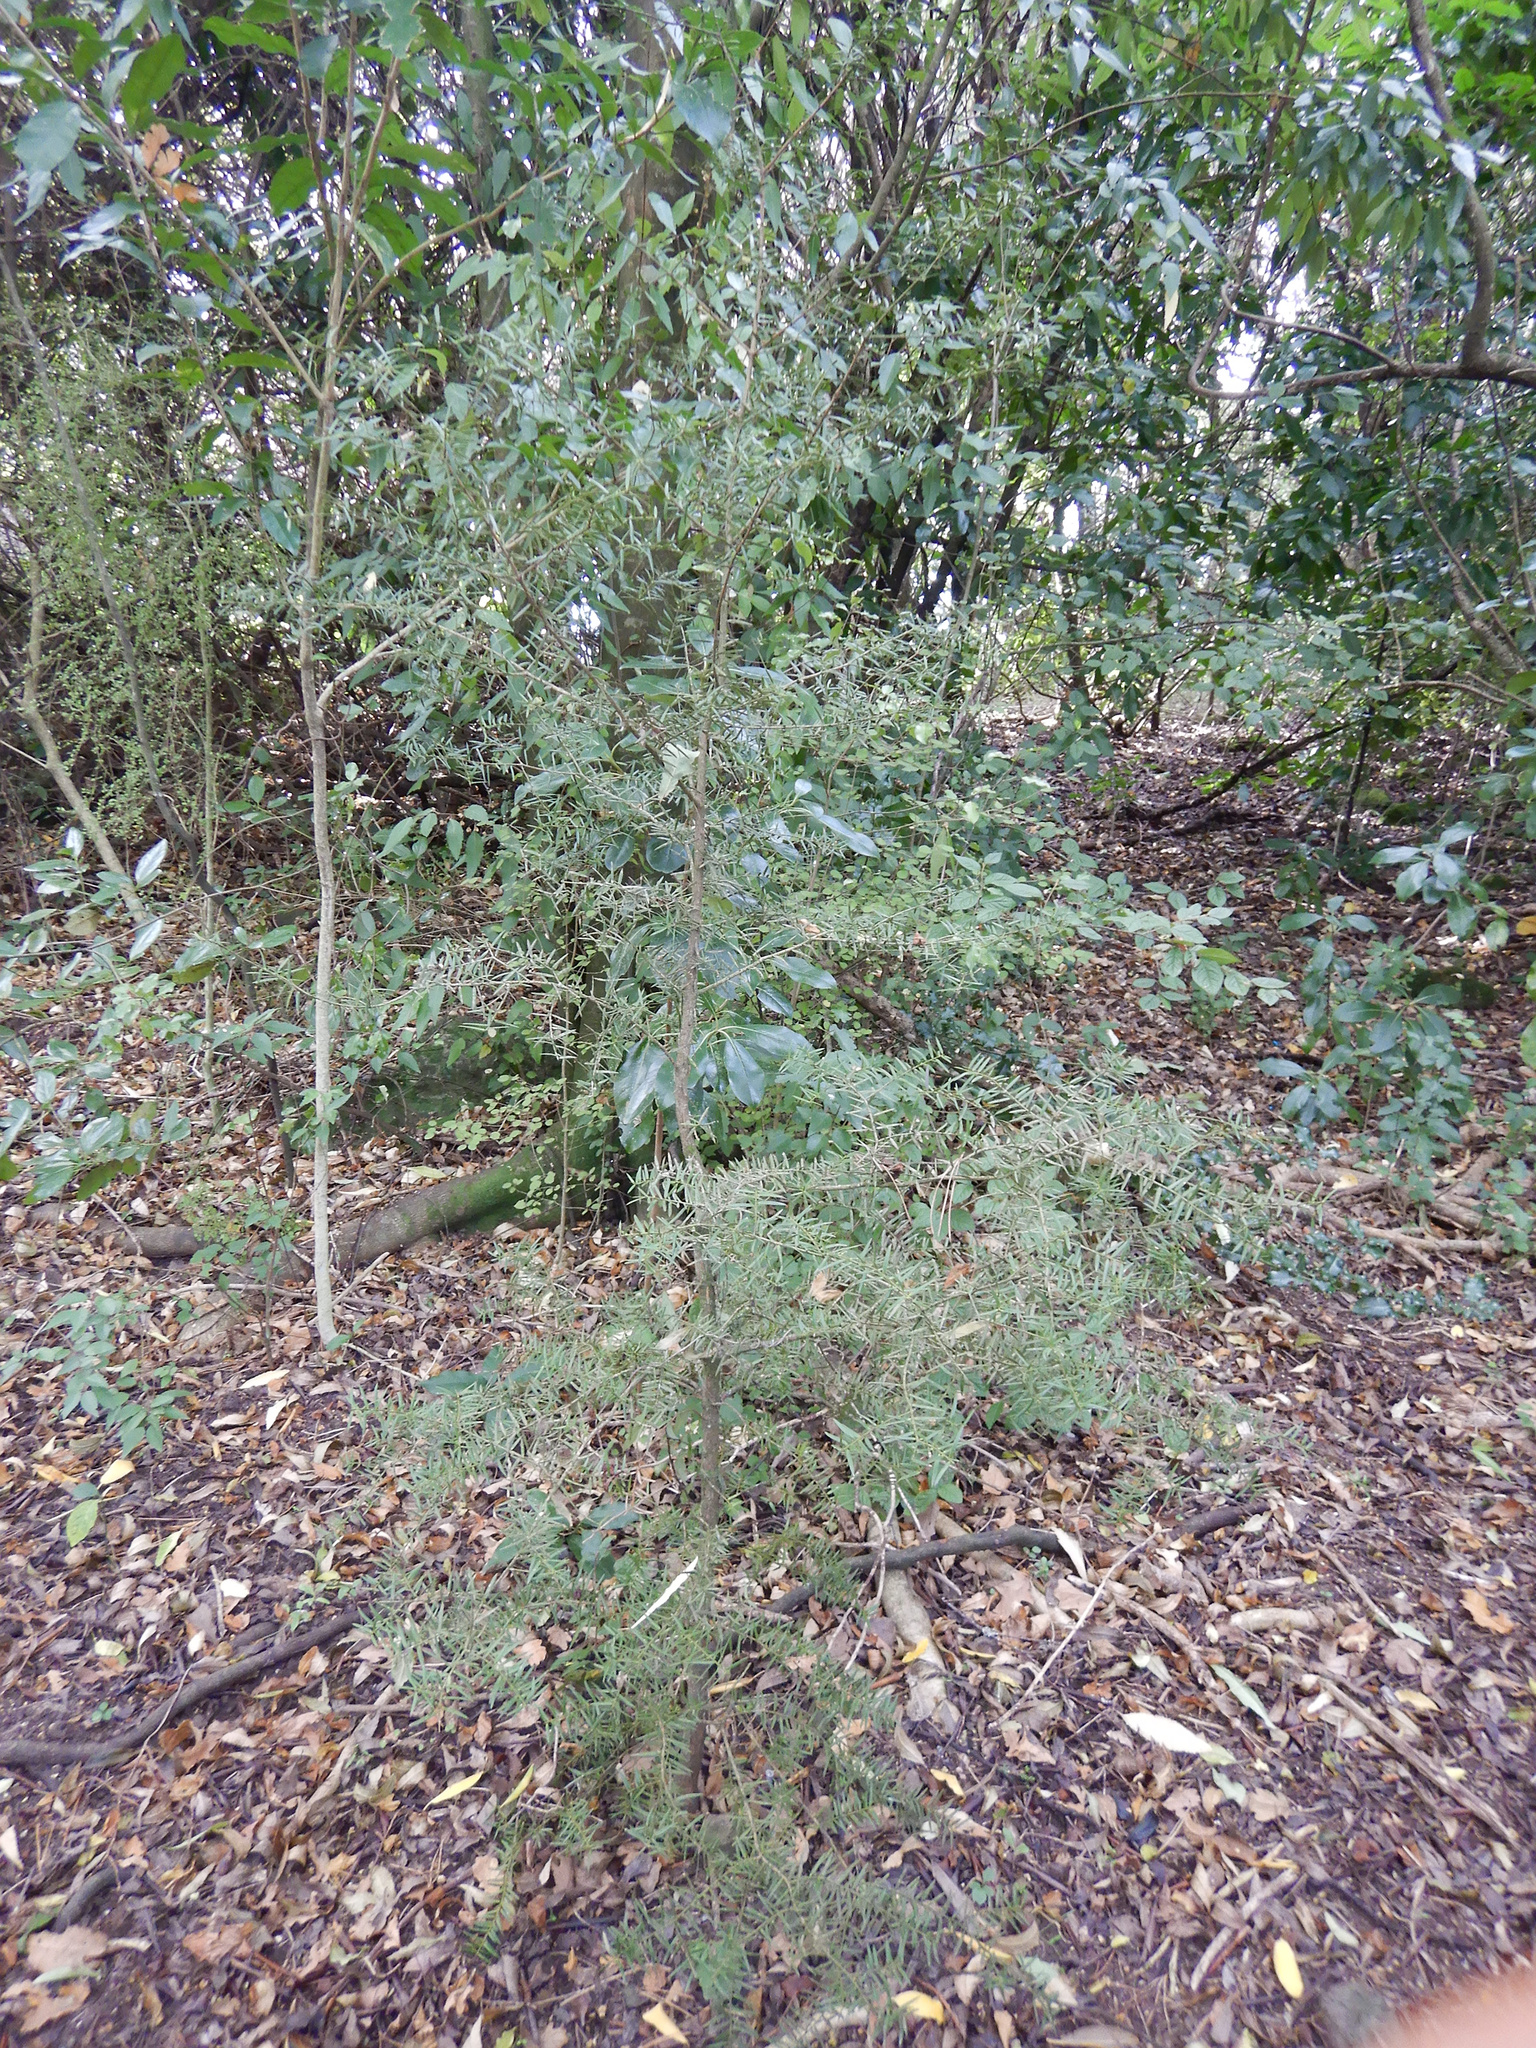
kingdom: Plantae
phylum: Tracheophyta
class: Pinopsida
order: Pinales
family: Podocarpaceae
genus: Podocarpus
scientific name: Podocarpus totara
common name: Totara
